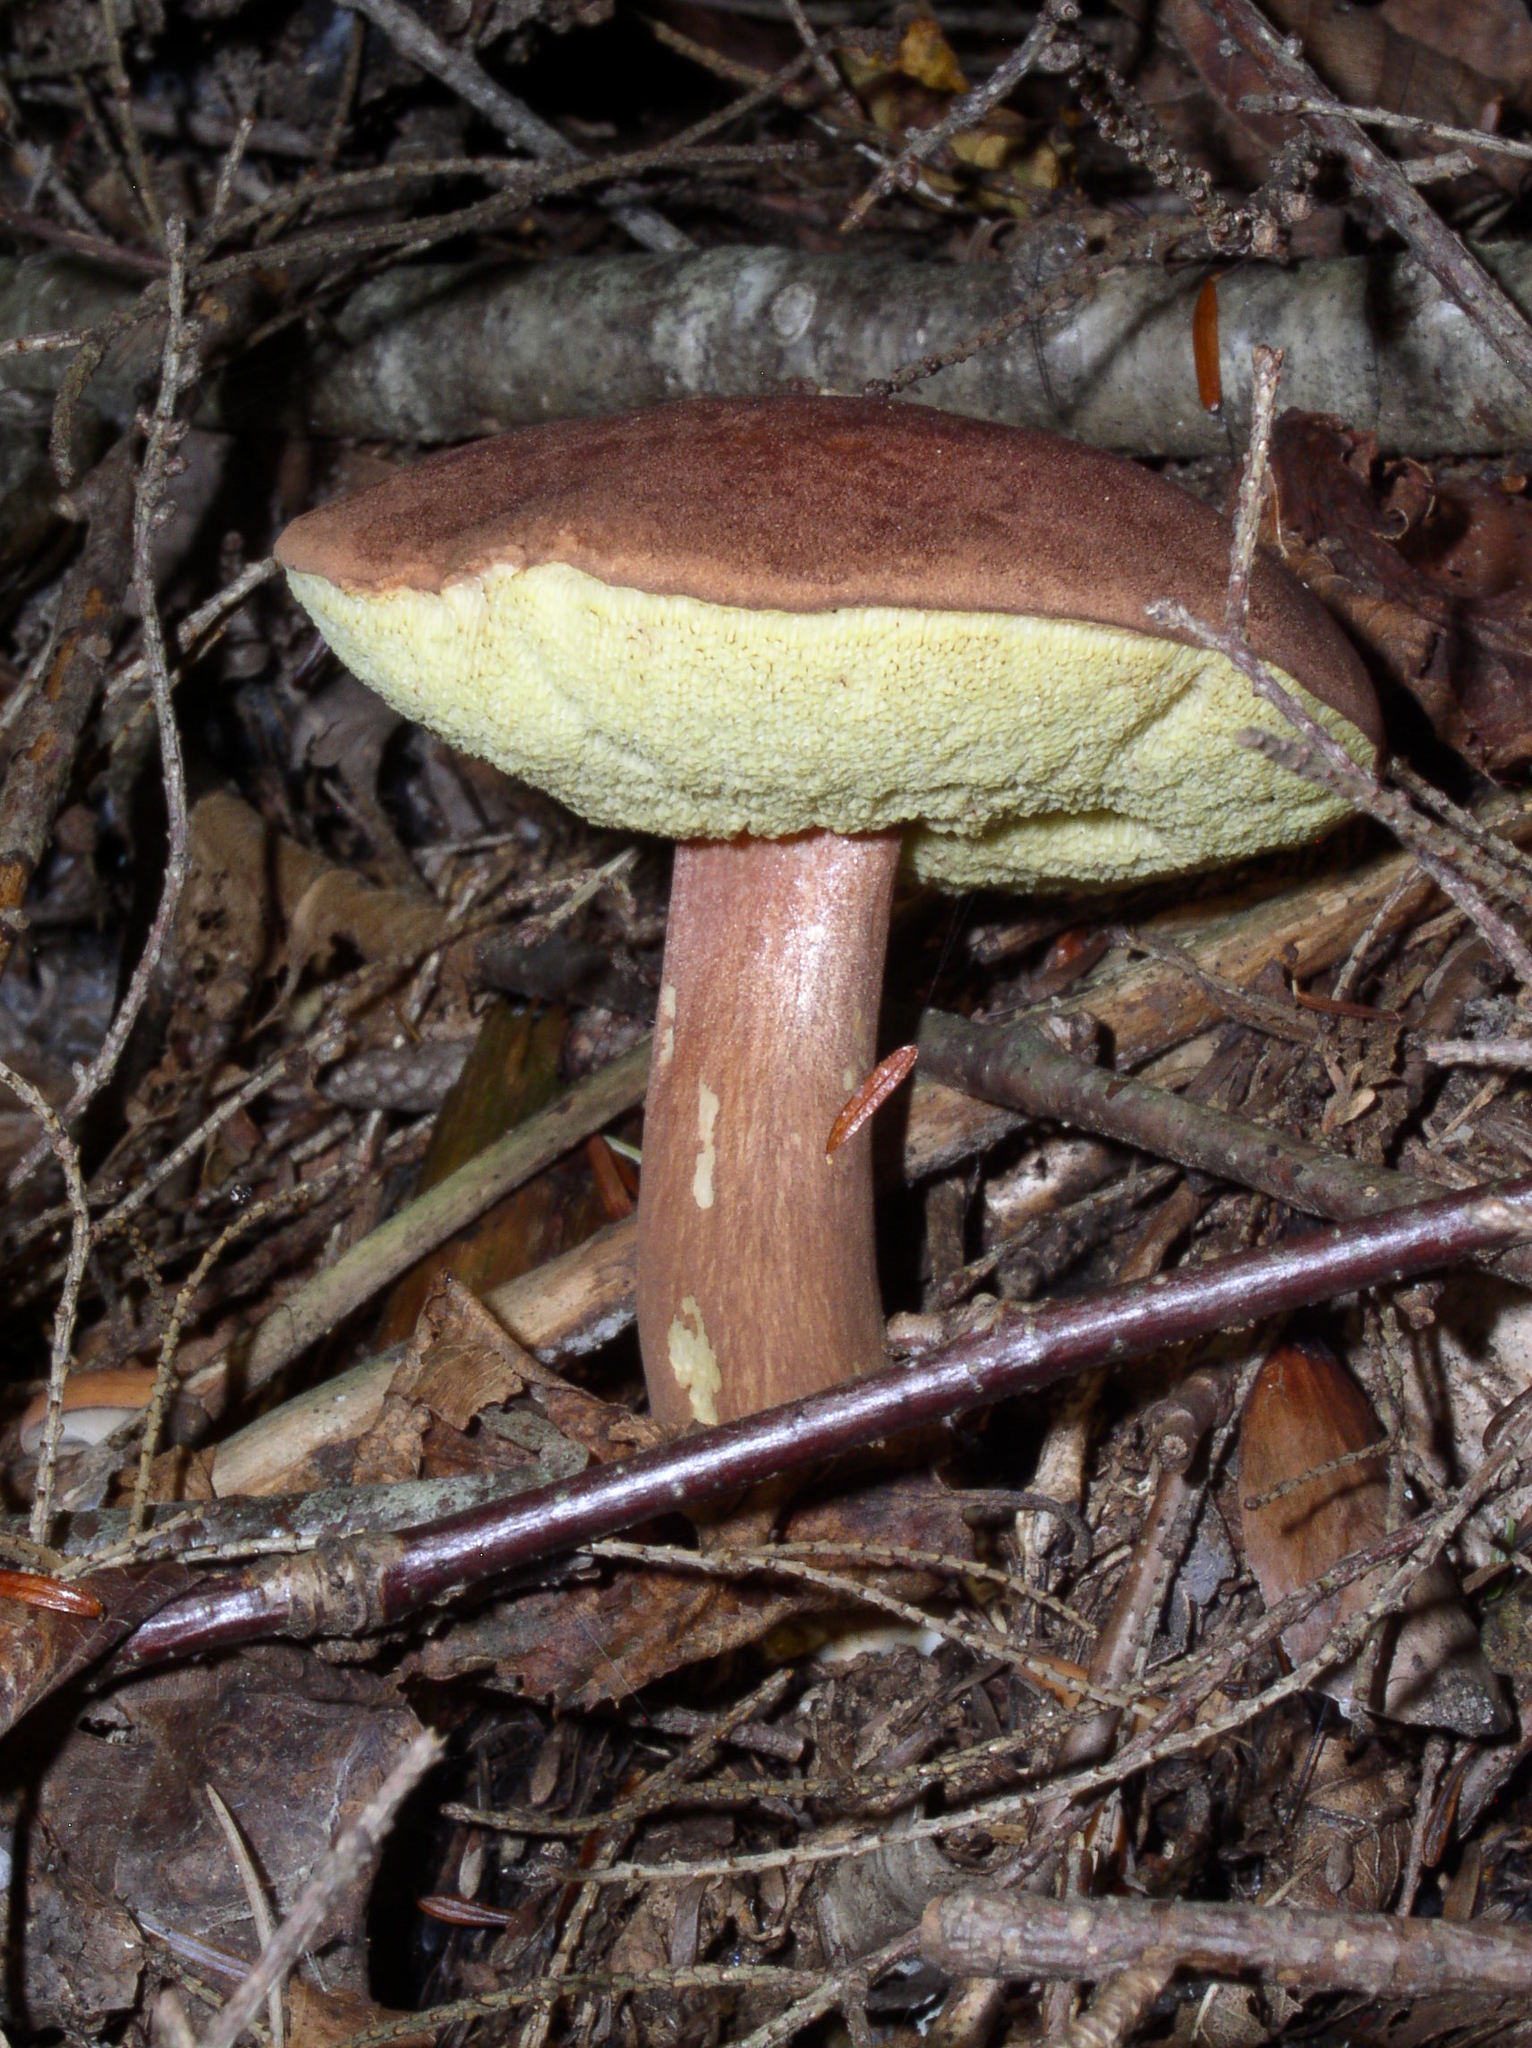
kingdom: Fungi
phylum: Basidiomycota
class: Agaricomycetes
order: Boletales
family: Boletaceae
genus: Imleria
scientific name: Imleria badia
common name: Bay bolete
